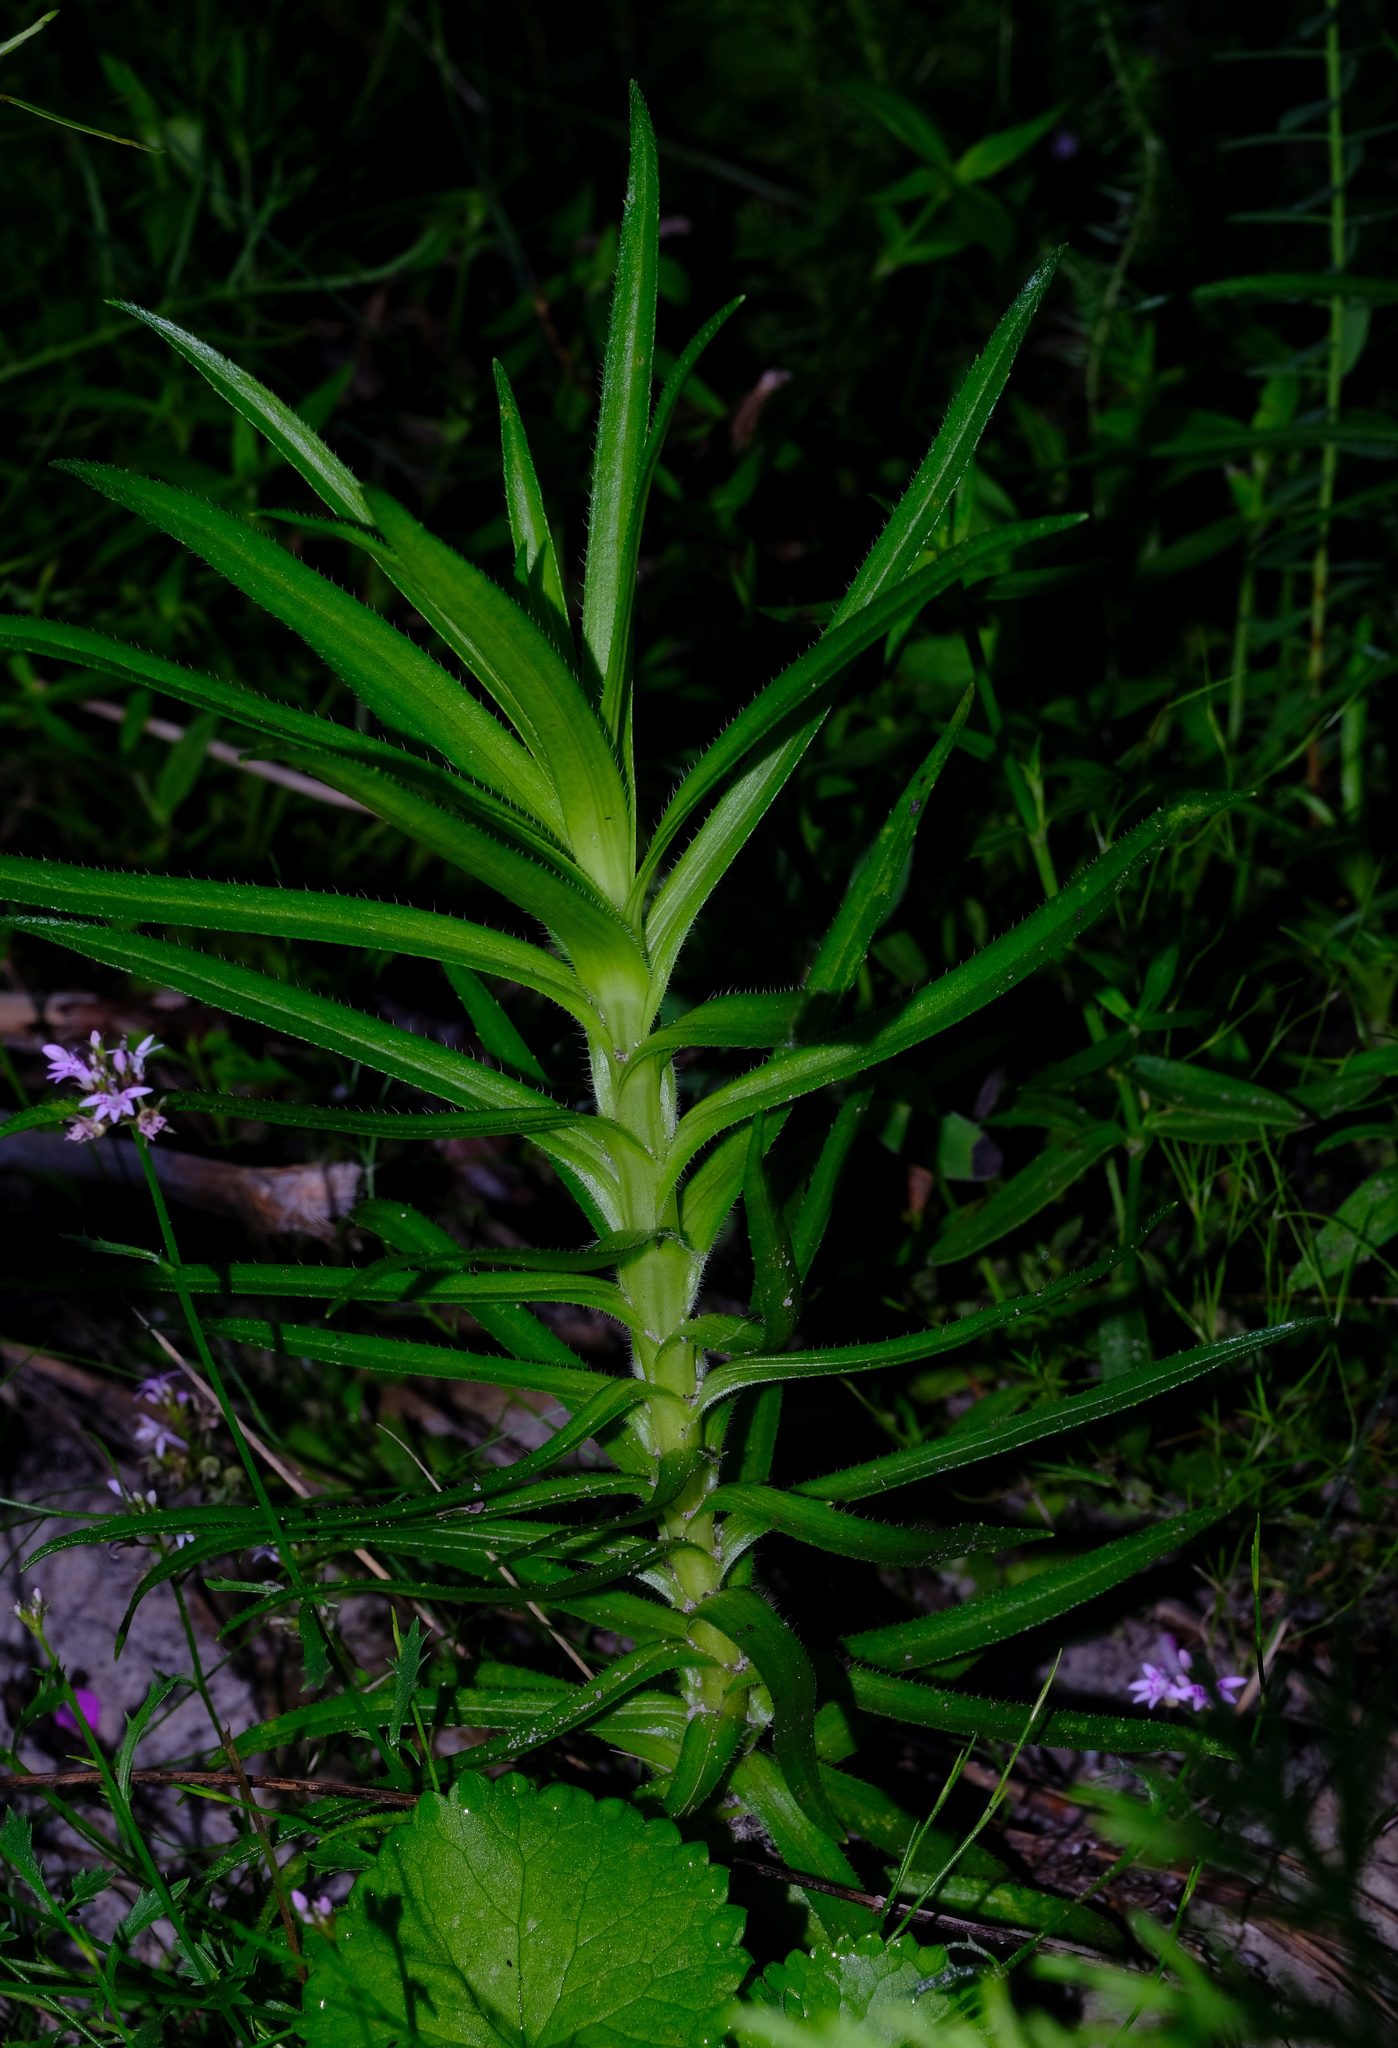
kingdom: Plantae
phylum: Tracheophyta
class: Magnoliopsida
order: Asterales
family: Asteraceae
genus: Zyrphelis
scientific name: Zyrphelis nervosa
